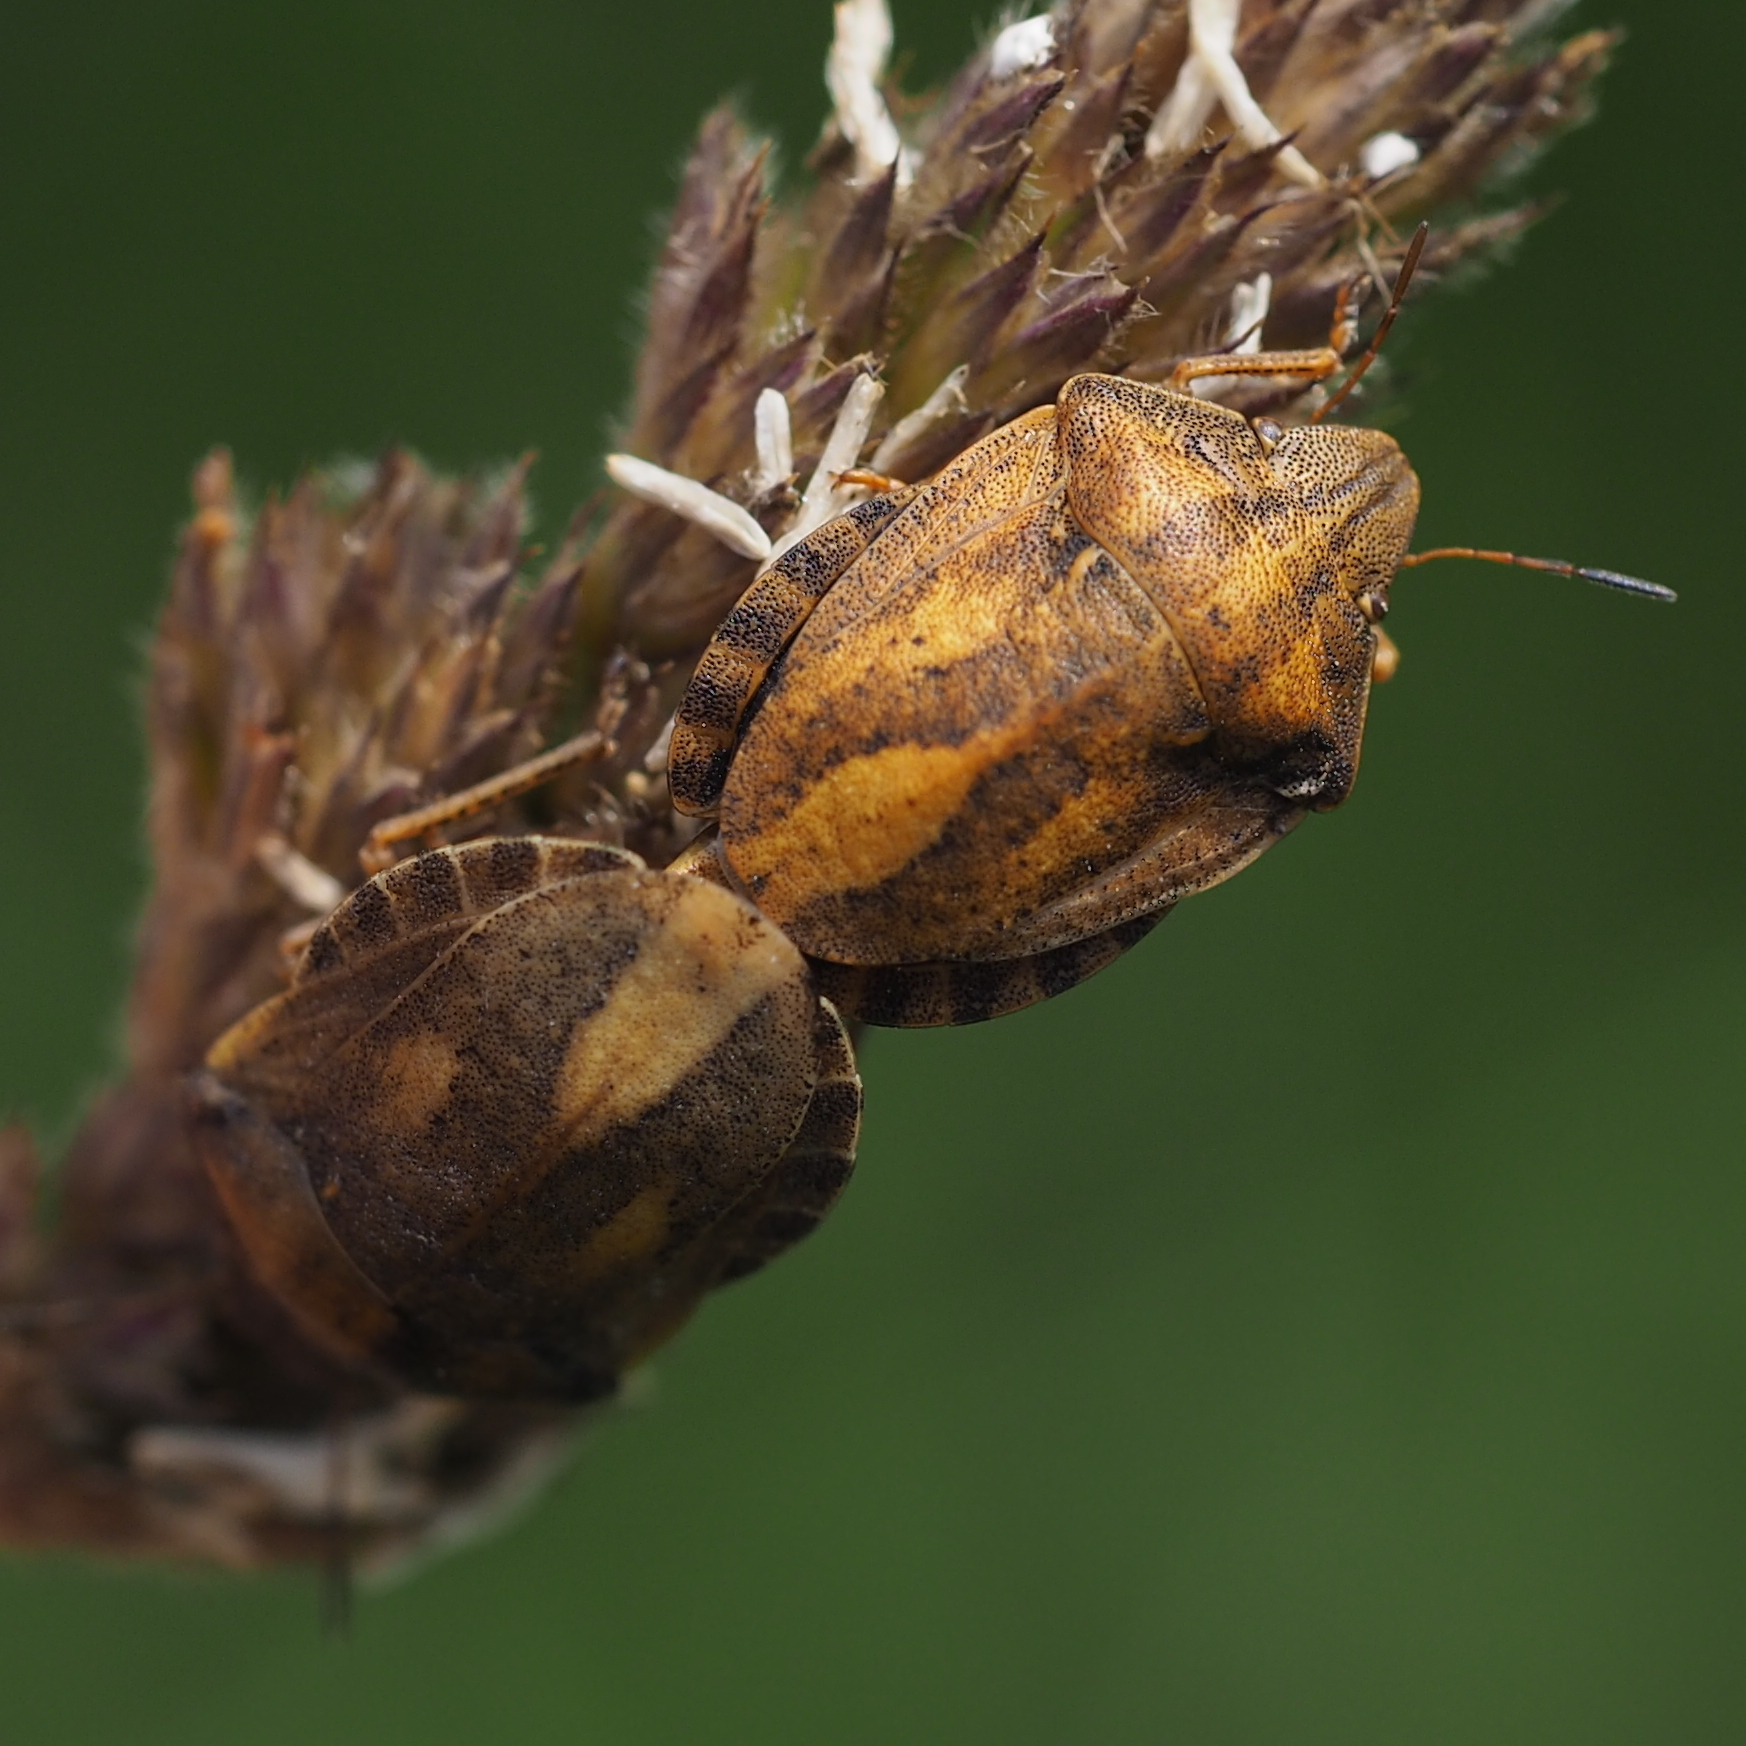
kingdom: Animalia
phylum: Arthropoda
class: Insecta
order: Hemiptera
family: Scutelleridae
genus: Eurygaster
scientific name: Eurygaster testudinaria
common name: Tortoise bug
